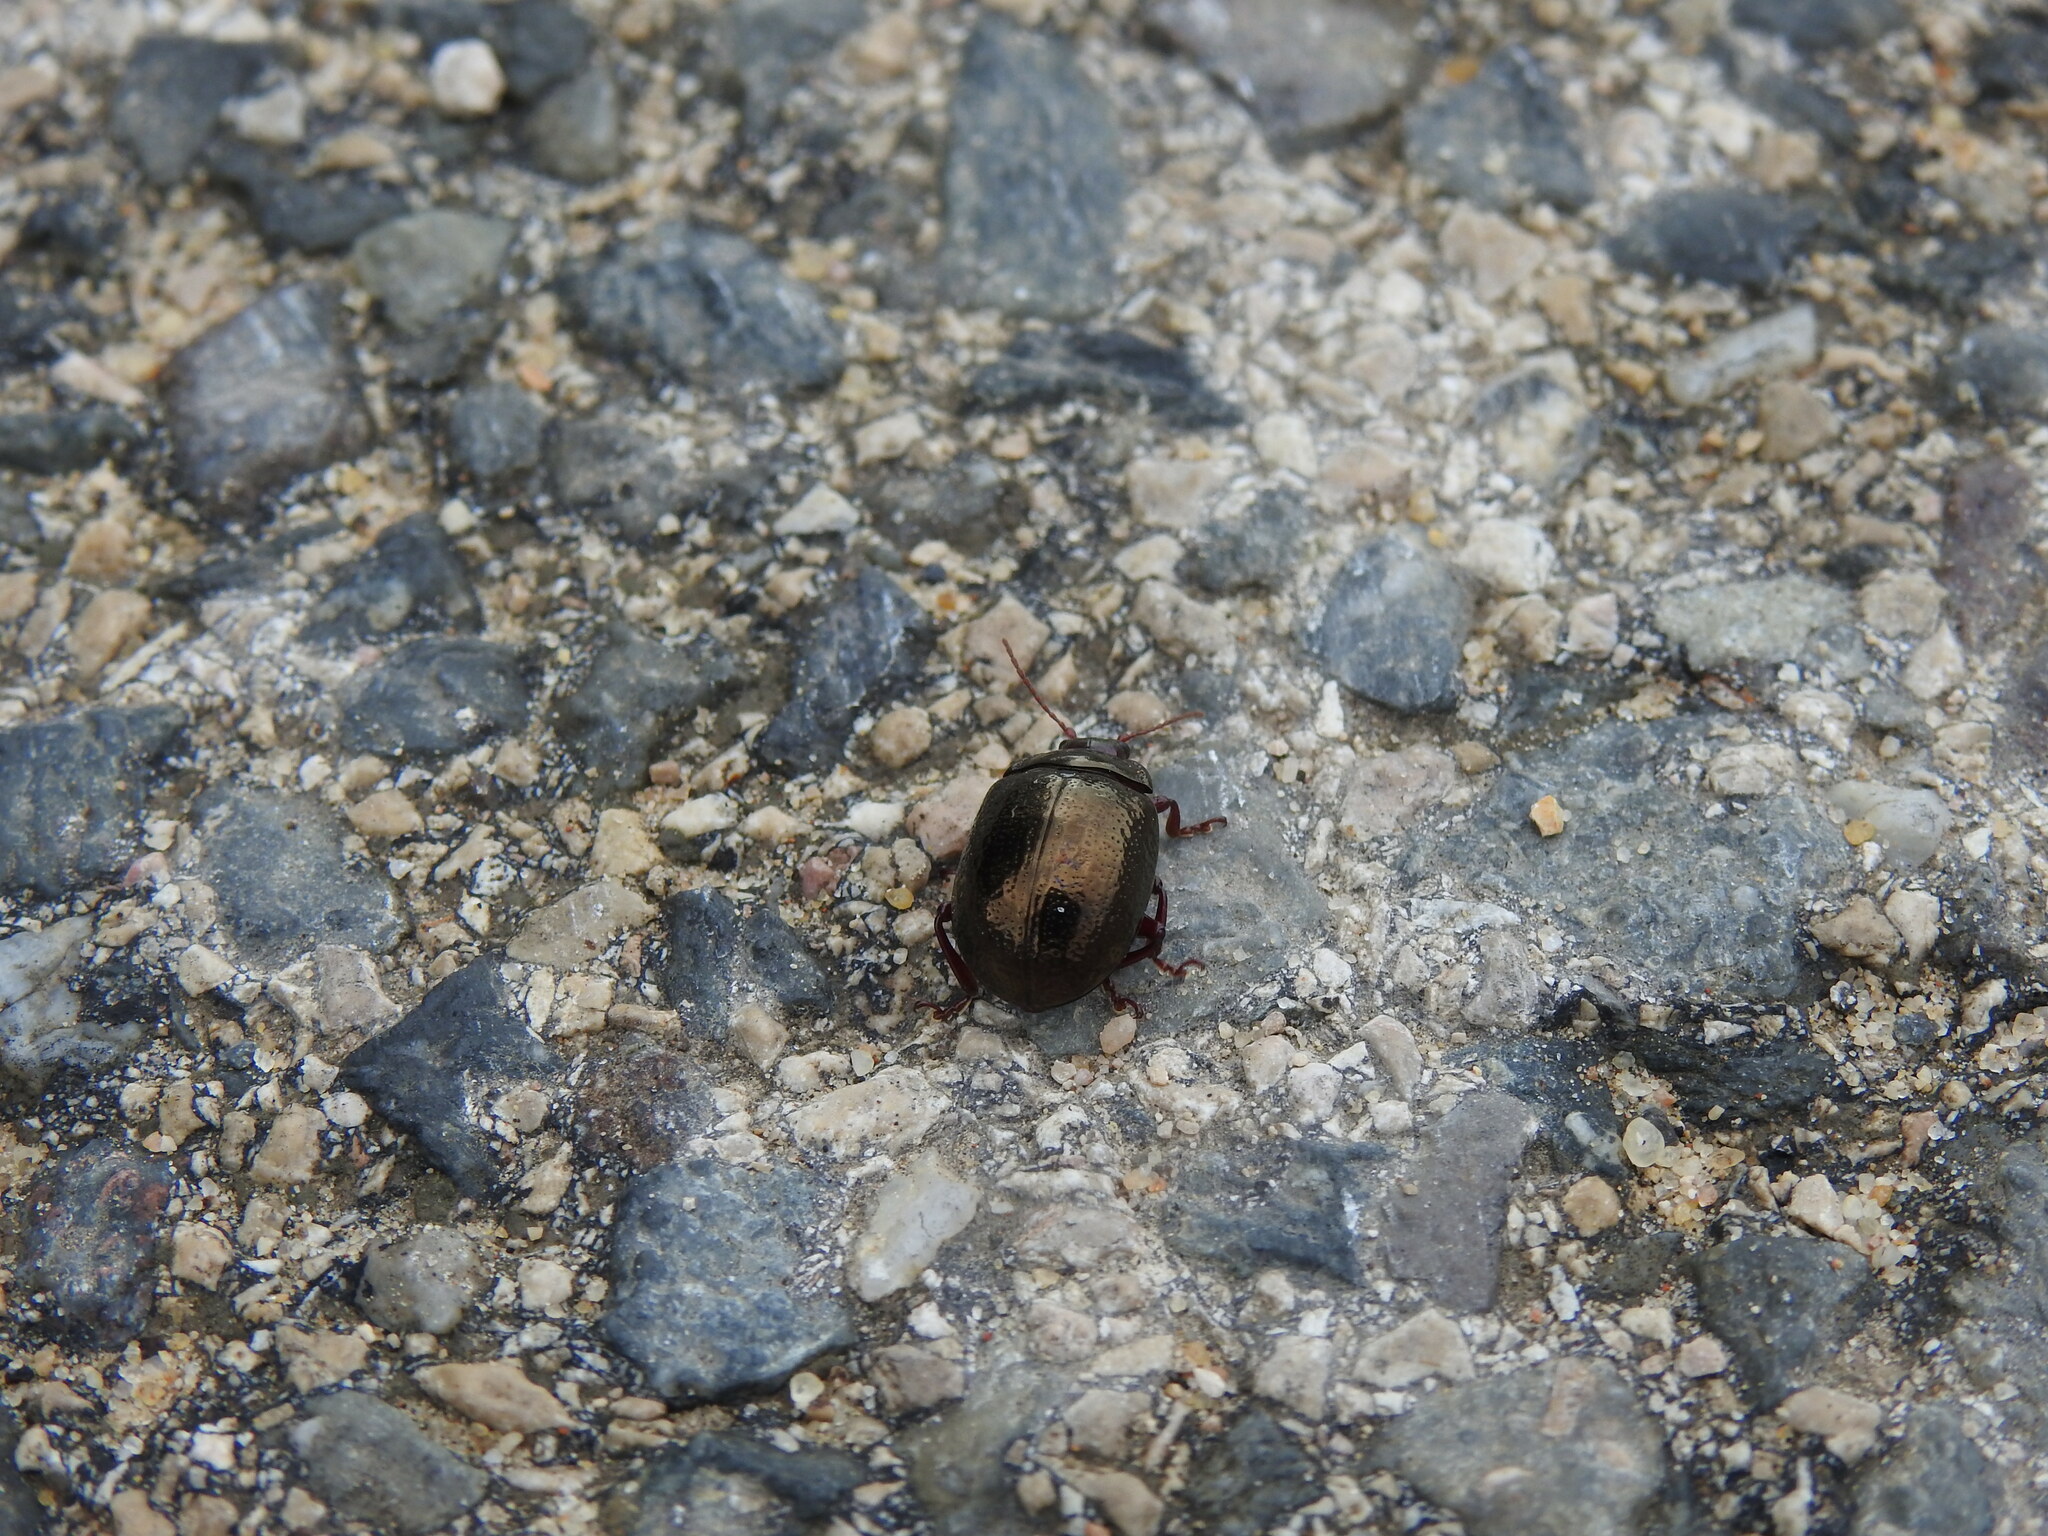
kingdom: Animalia
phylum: Arthropoda
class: Insecta
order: Coleoptera
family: Chrysomelidae
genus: Chrysolina
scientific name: Chrysolina bankii
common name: Leaf beetle
